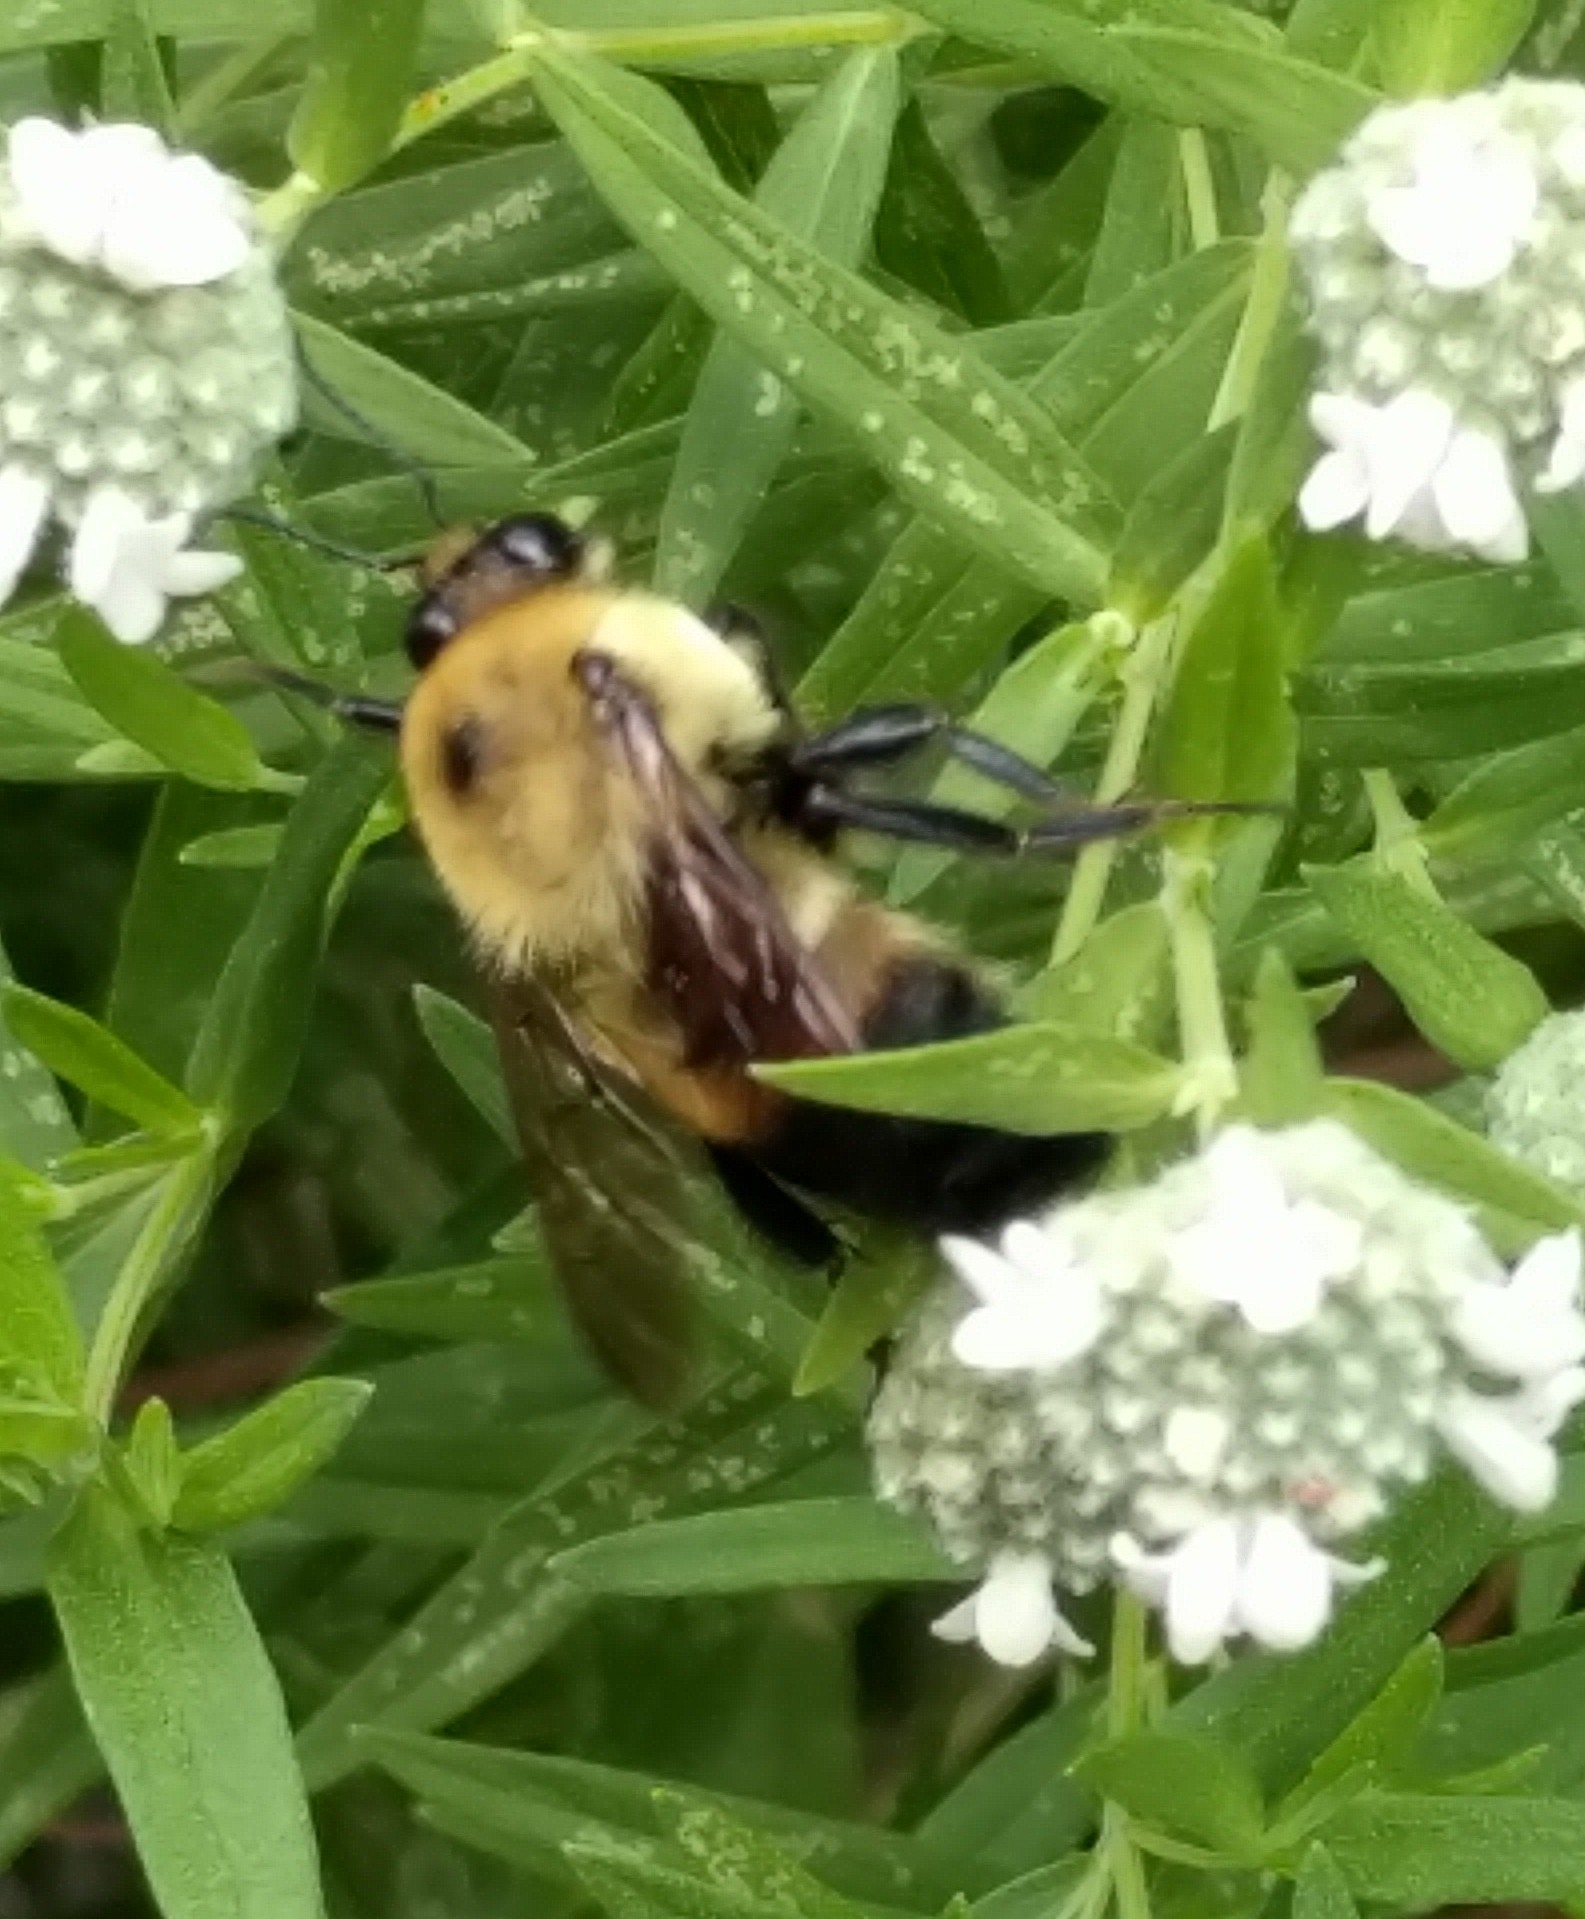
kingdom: Animalia
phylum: Arthropoda
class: Insecta
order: Hymenoptera
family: Apidae
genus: Bombus
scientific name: Bombus griseocollis
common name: Brown-belted bumble bee
